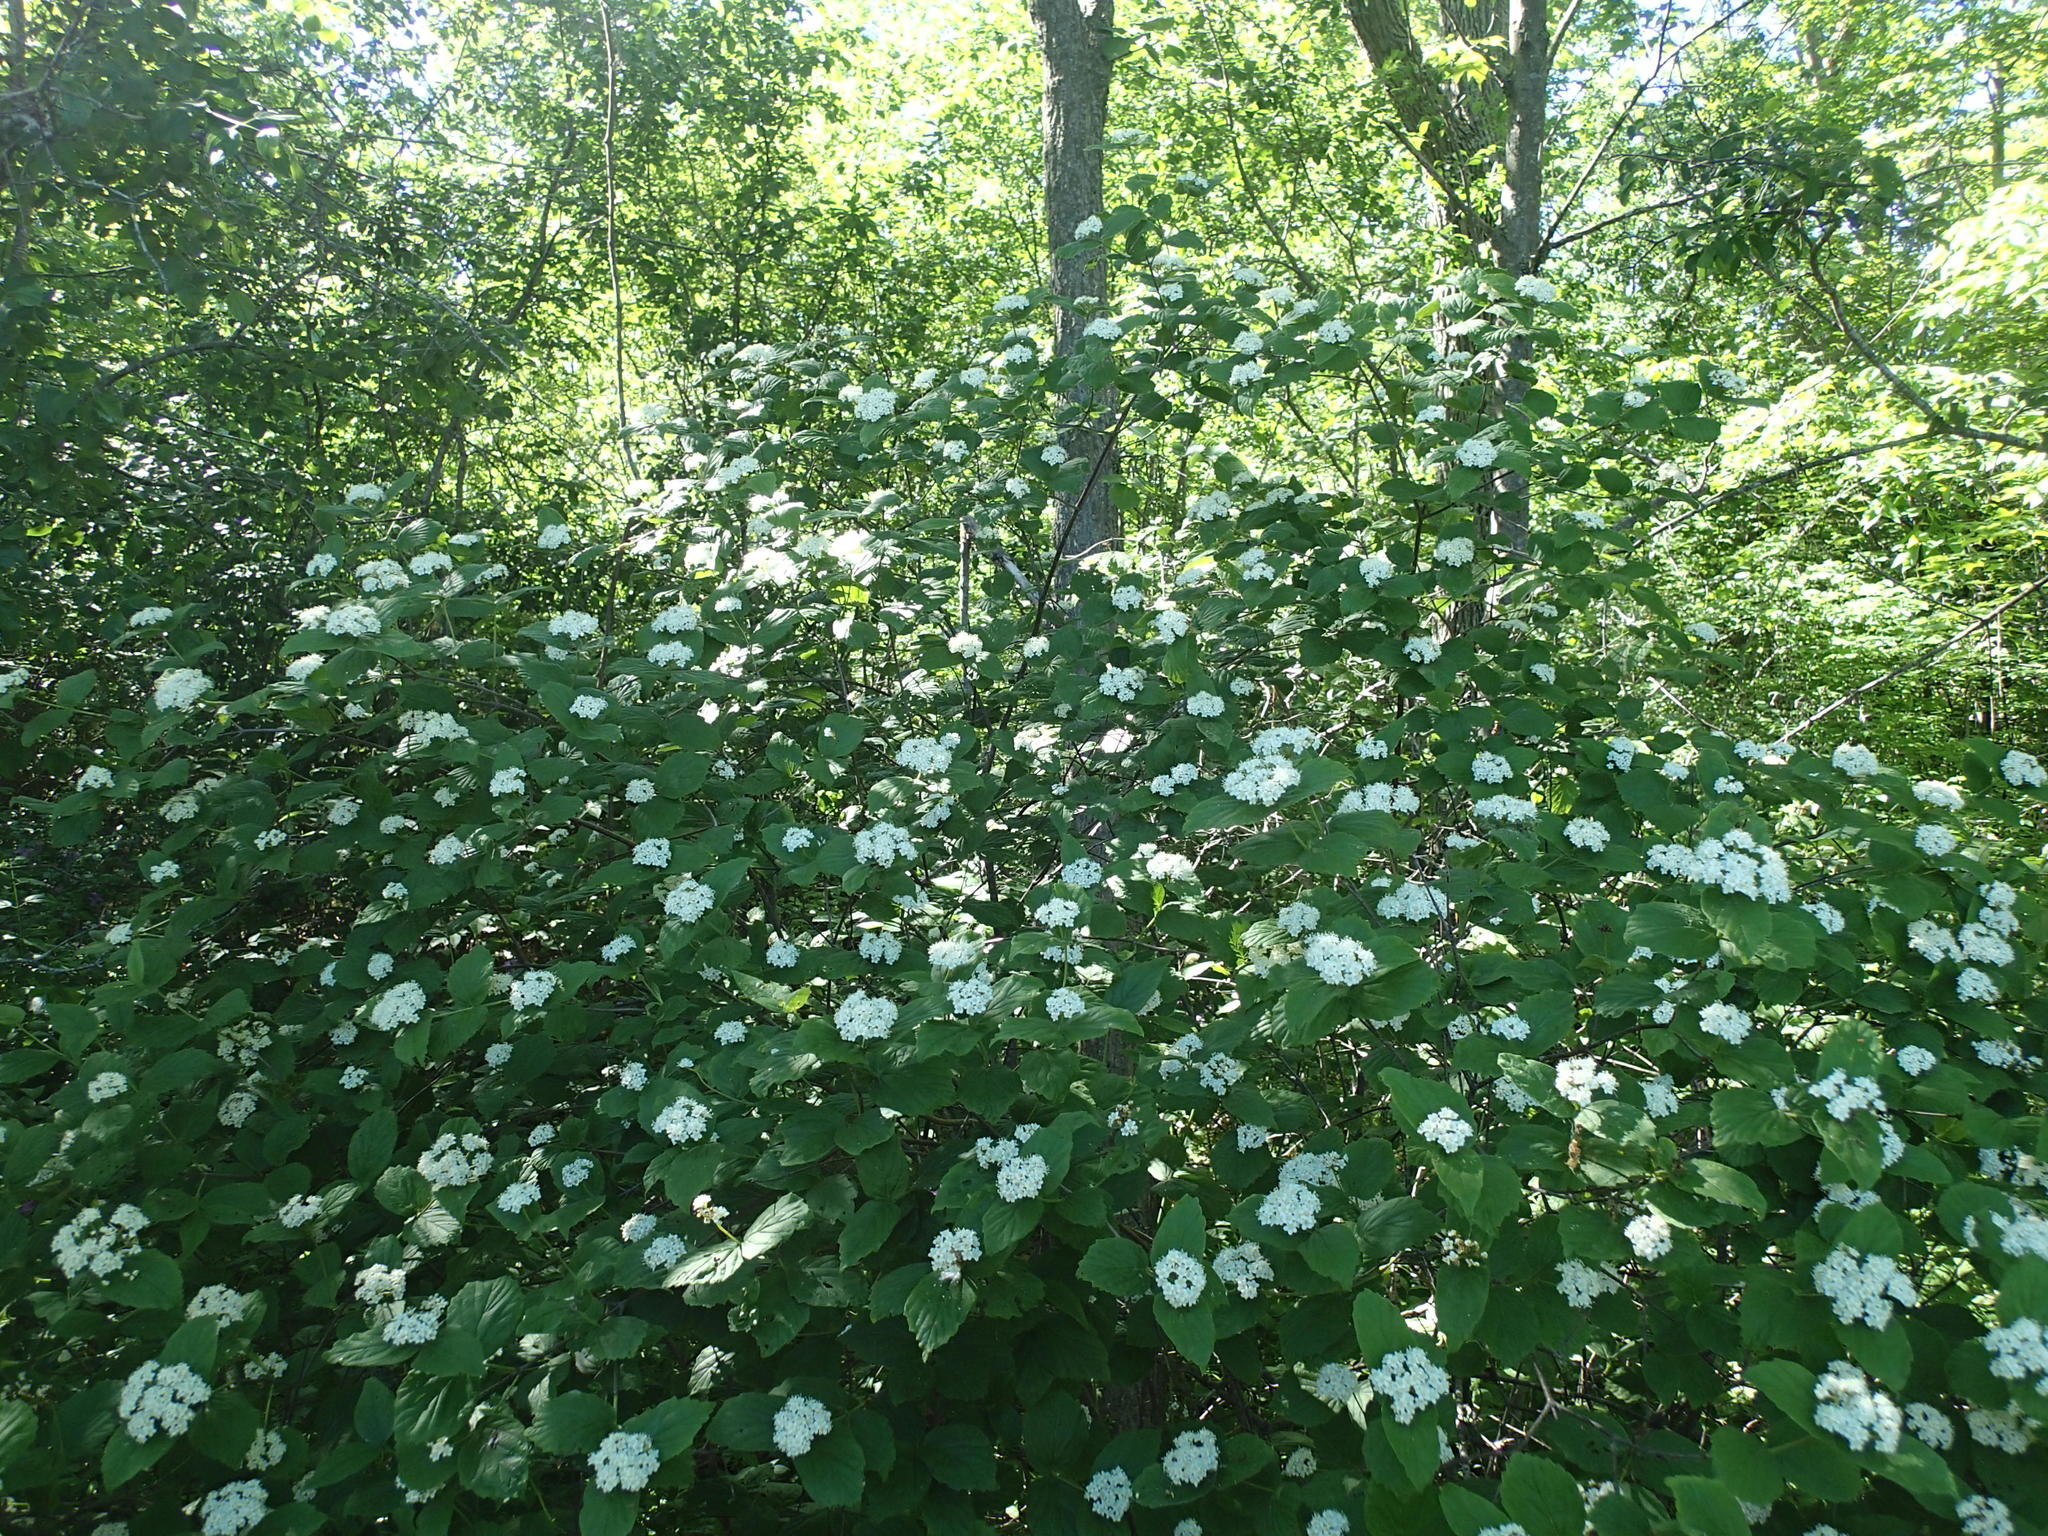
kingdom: Plantae
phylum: Tracheophyta
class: Magnoliopsida
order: Dipsacales
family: Viburnaceae
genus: Viburnum
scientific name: Viburnum rafinesqueanum
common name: Downy arrow-wood
